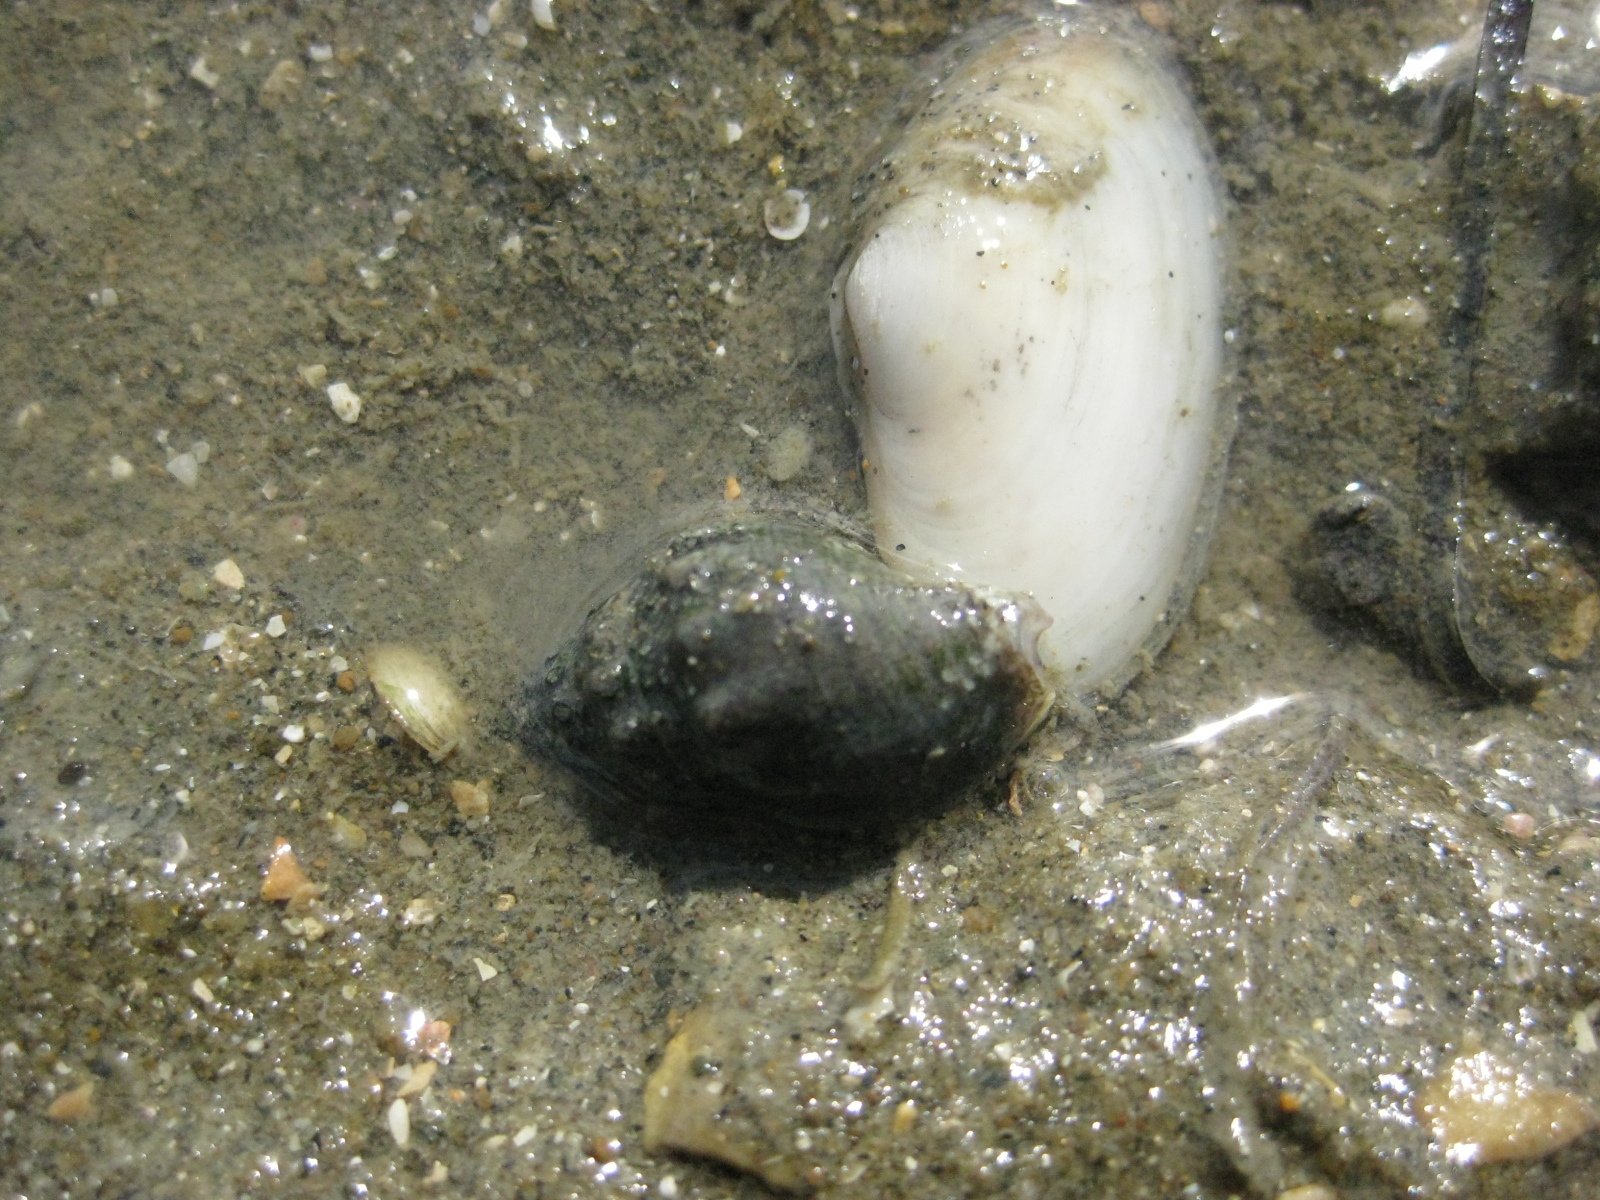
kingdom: Animalia
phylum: Mollusca
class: Bivalvia
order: Venerida
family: Mesodesmatidae
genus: Paphies
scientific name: Paphies australis
